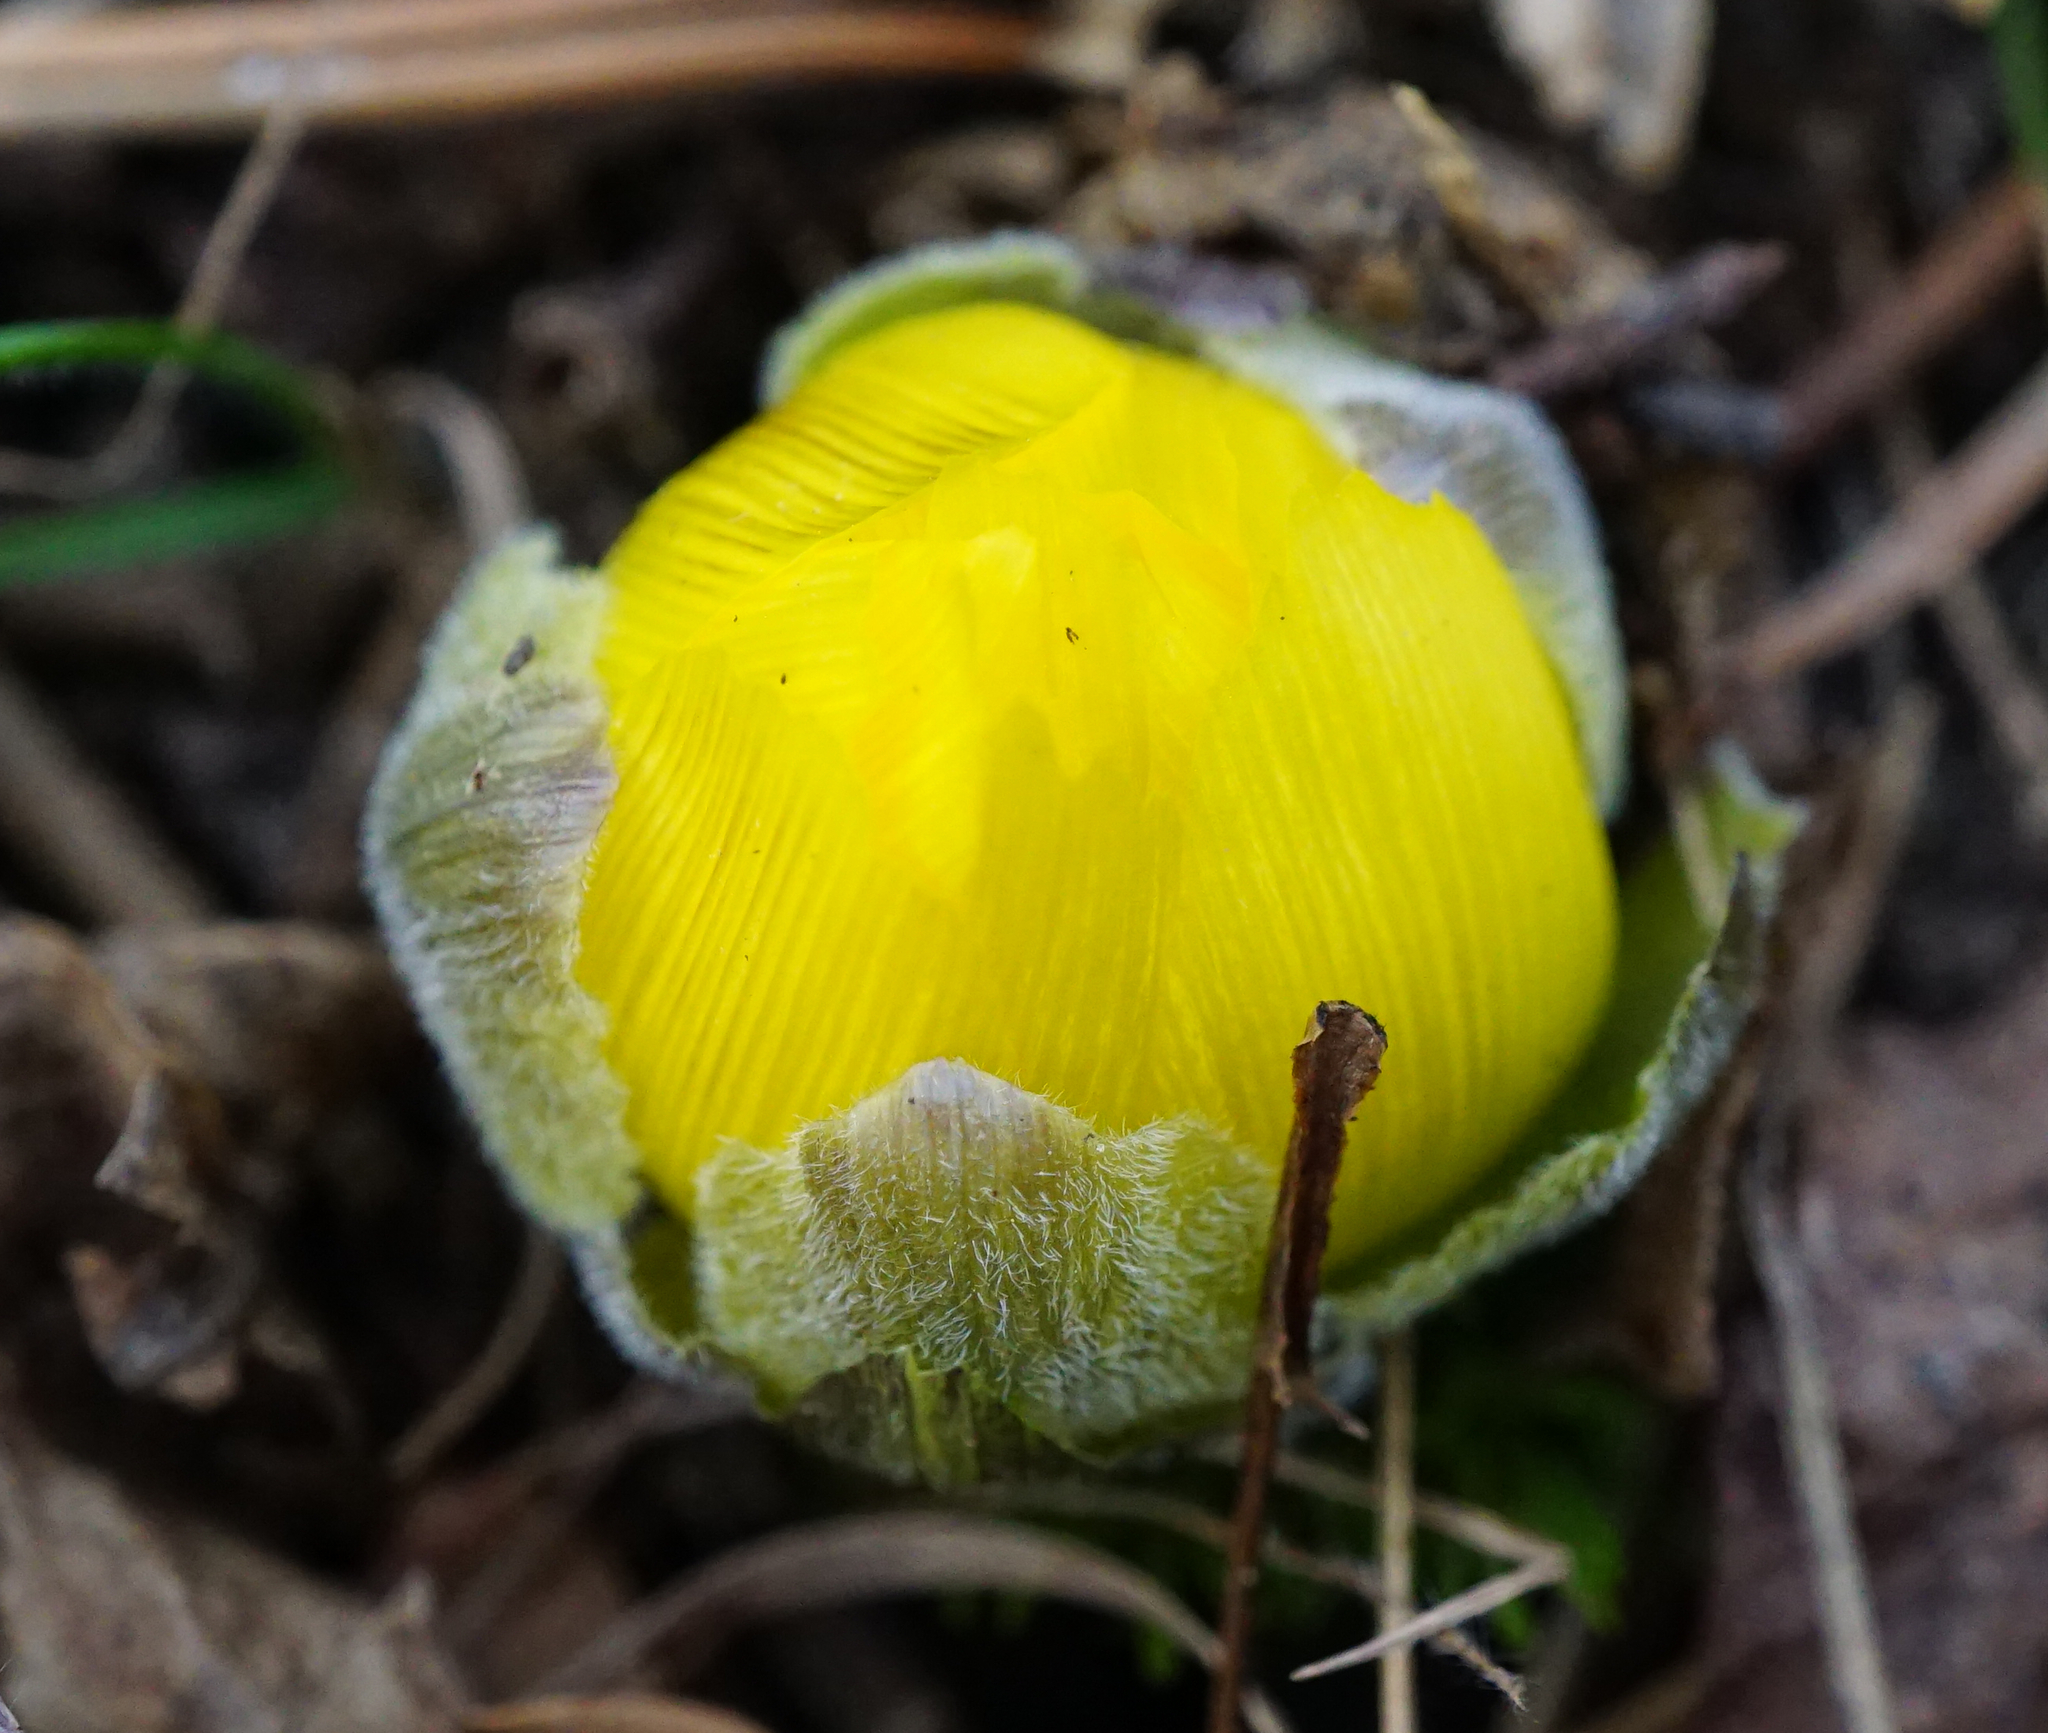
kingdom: Plantae
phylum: Tracheophyta
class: Magnoliopsida
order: Ranunculales
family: Ranunculaceae
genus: Adonis
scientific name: Adonis vernalis
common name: Yellow pheasants-eye
